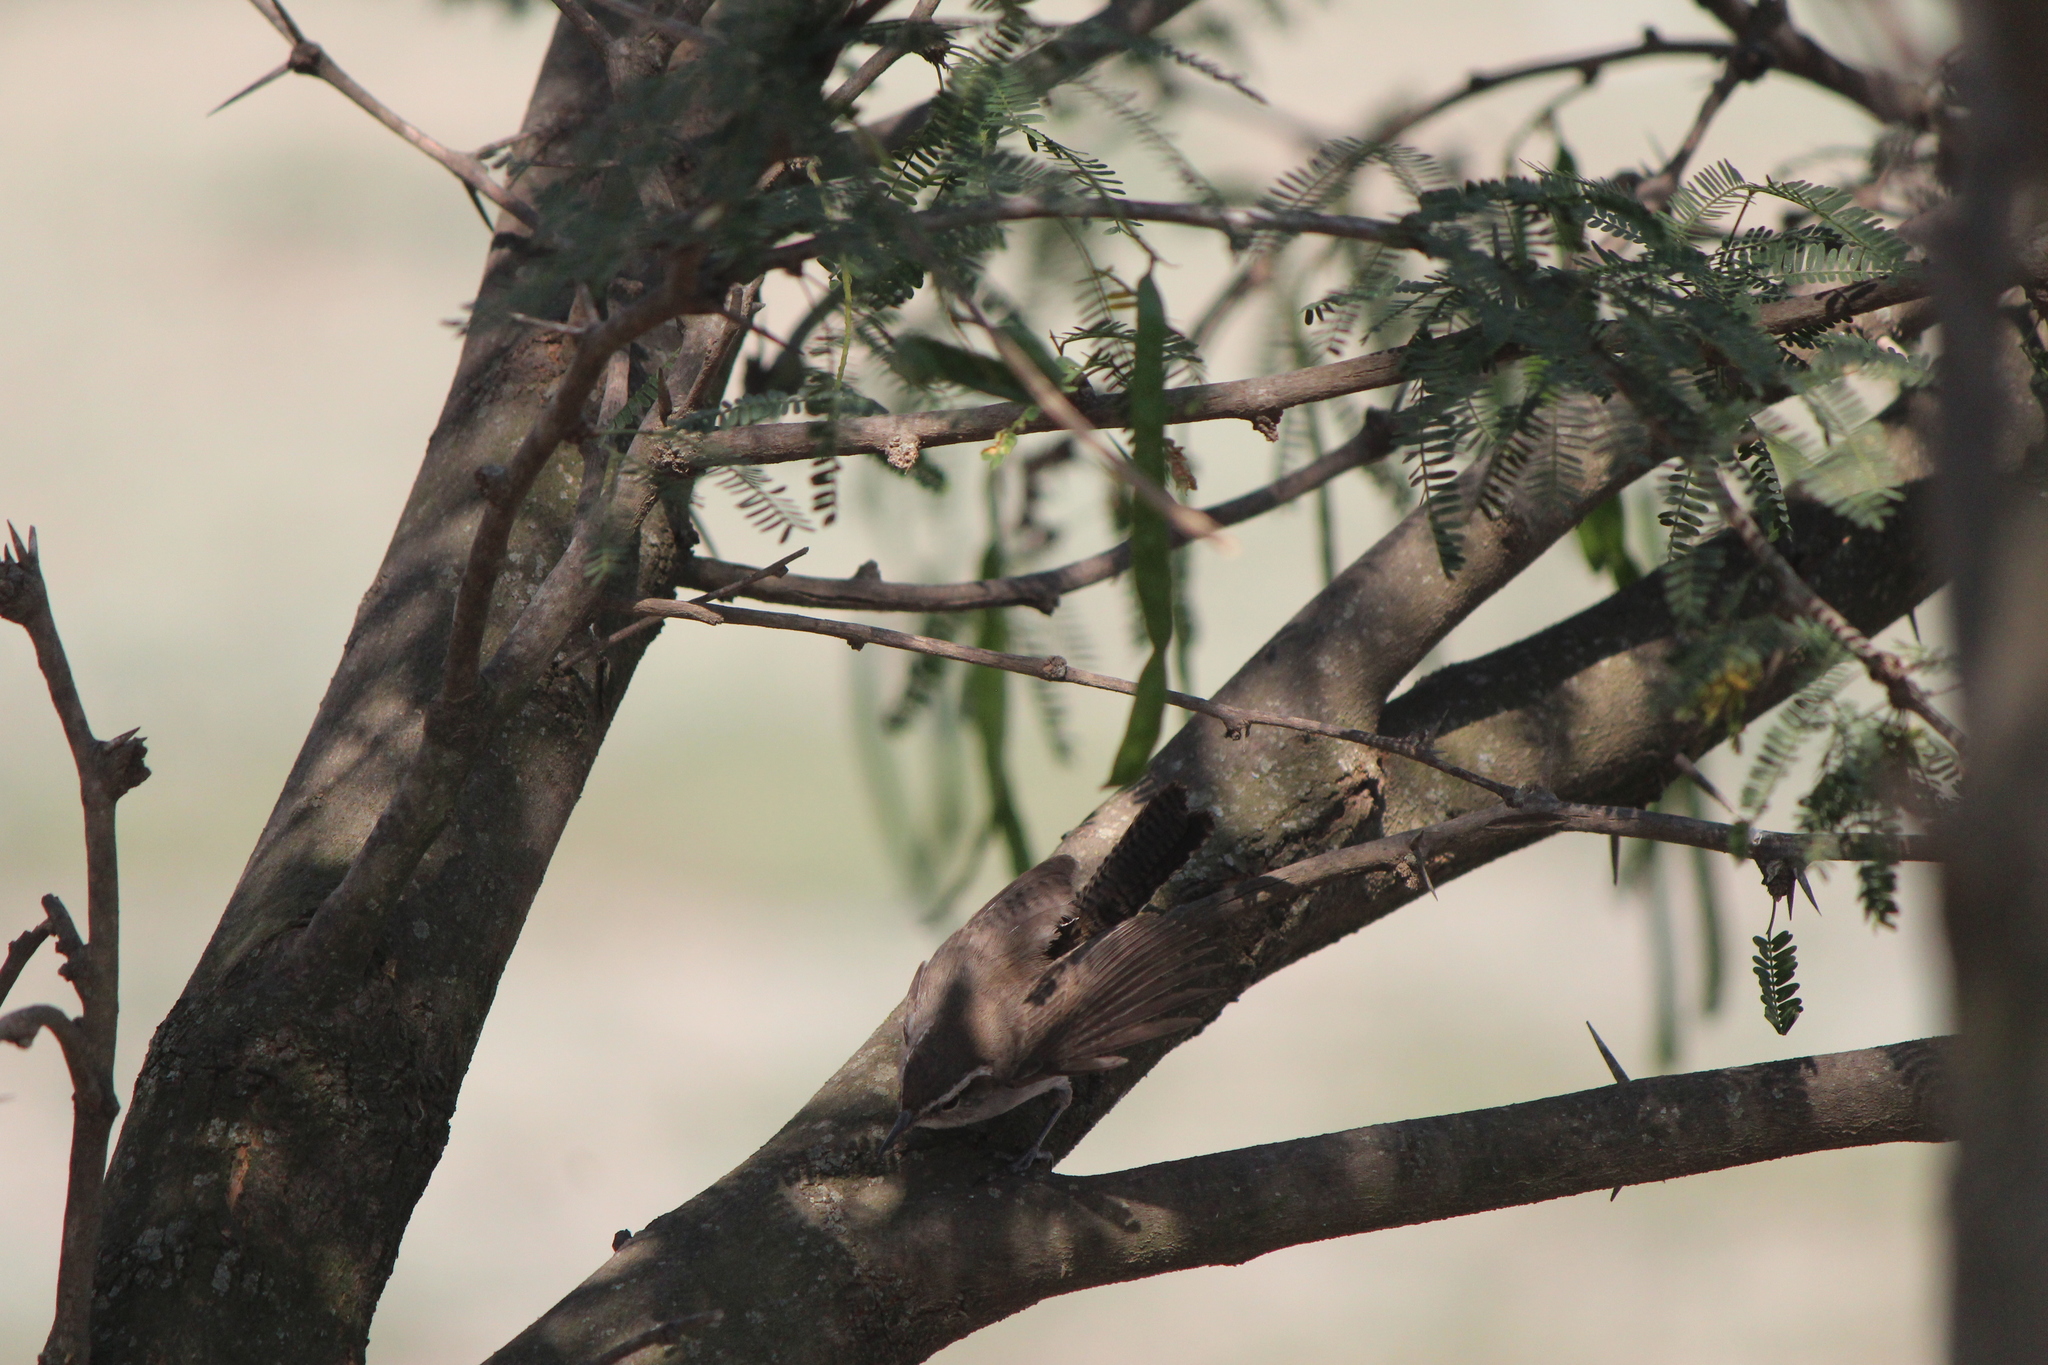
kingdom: Animalia
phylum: Chordata
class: Aves
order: Passeriformes
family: Troglodytidae
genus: Thryomanes
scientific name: Thryomanes bewickii
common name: Bewick's wren
